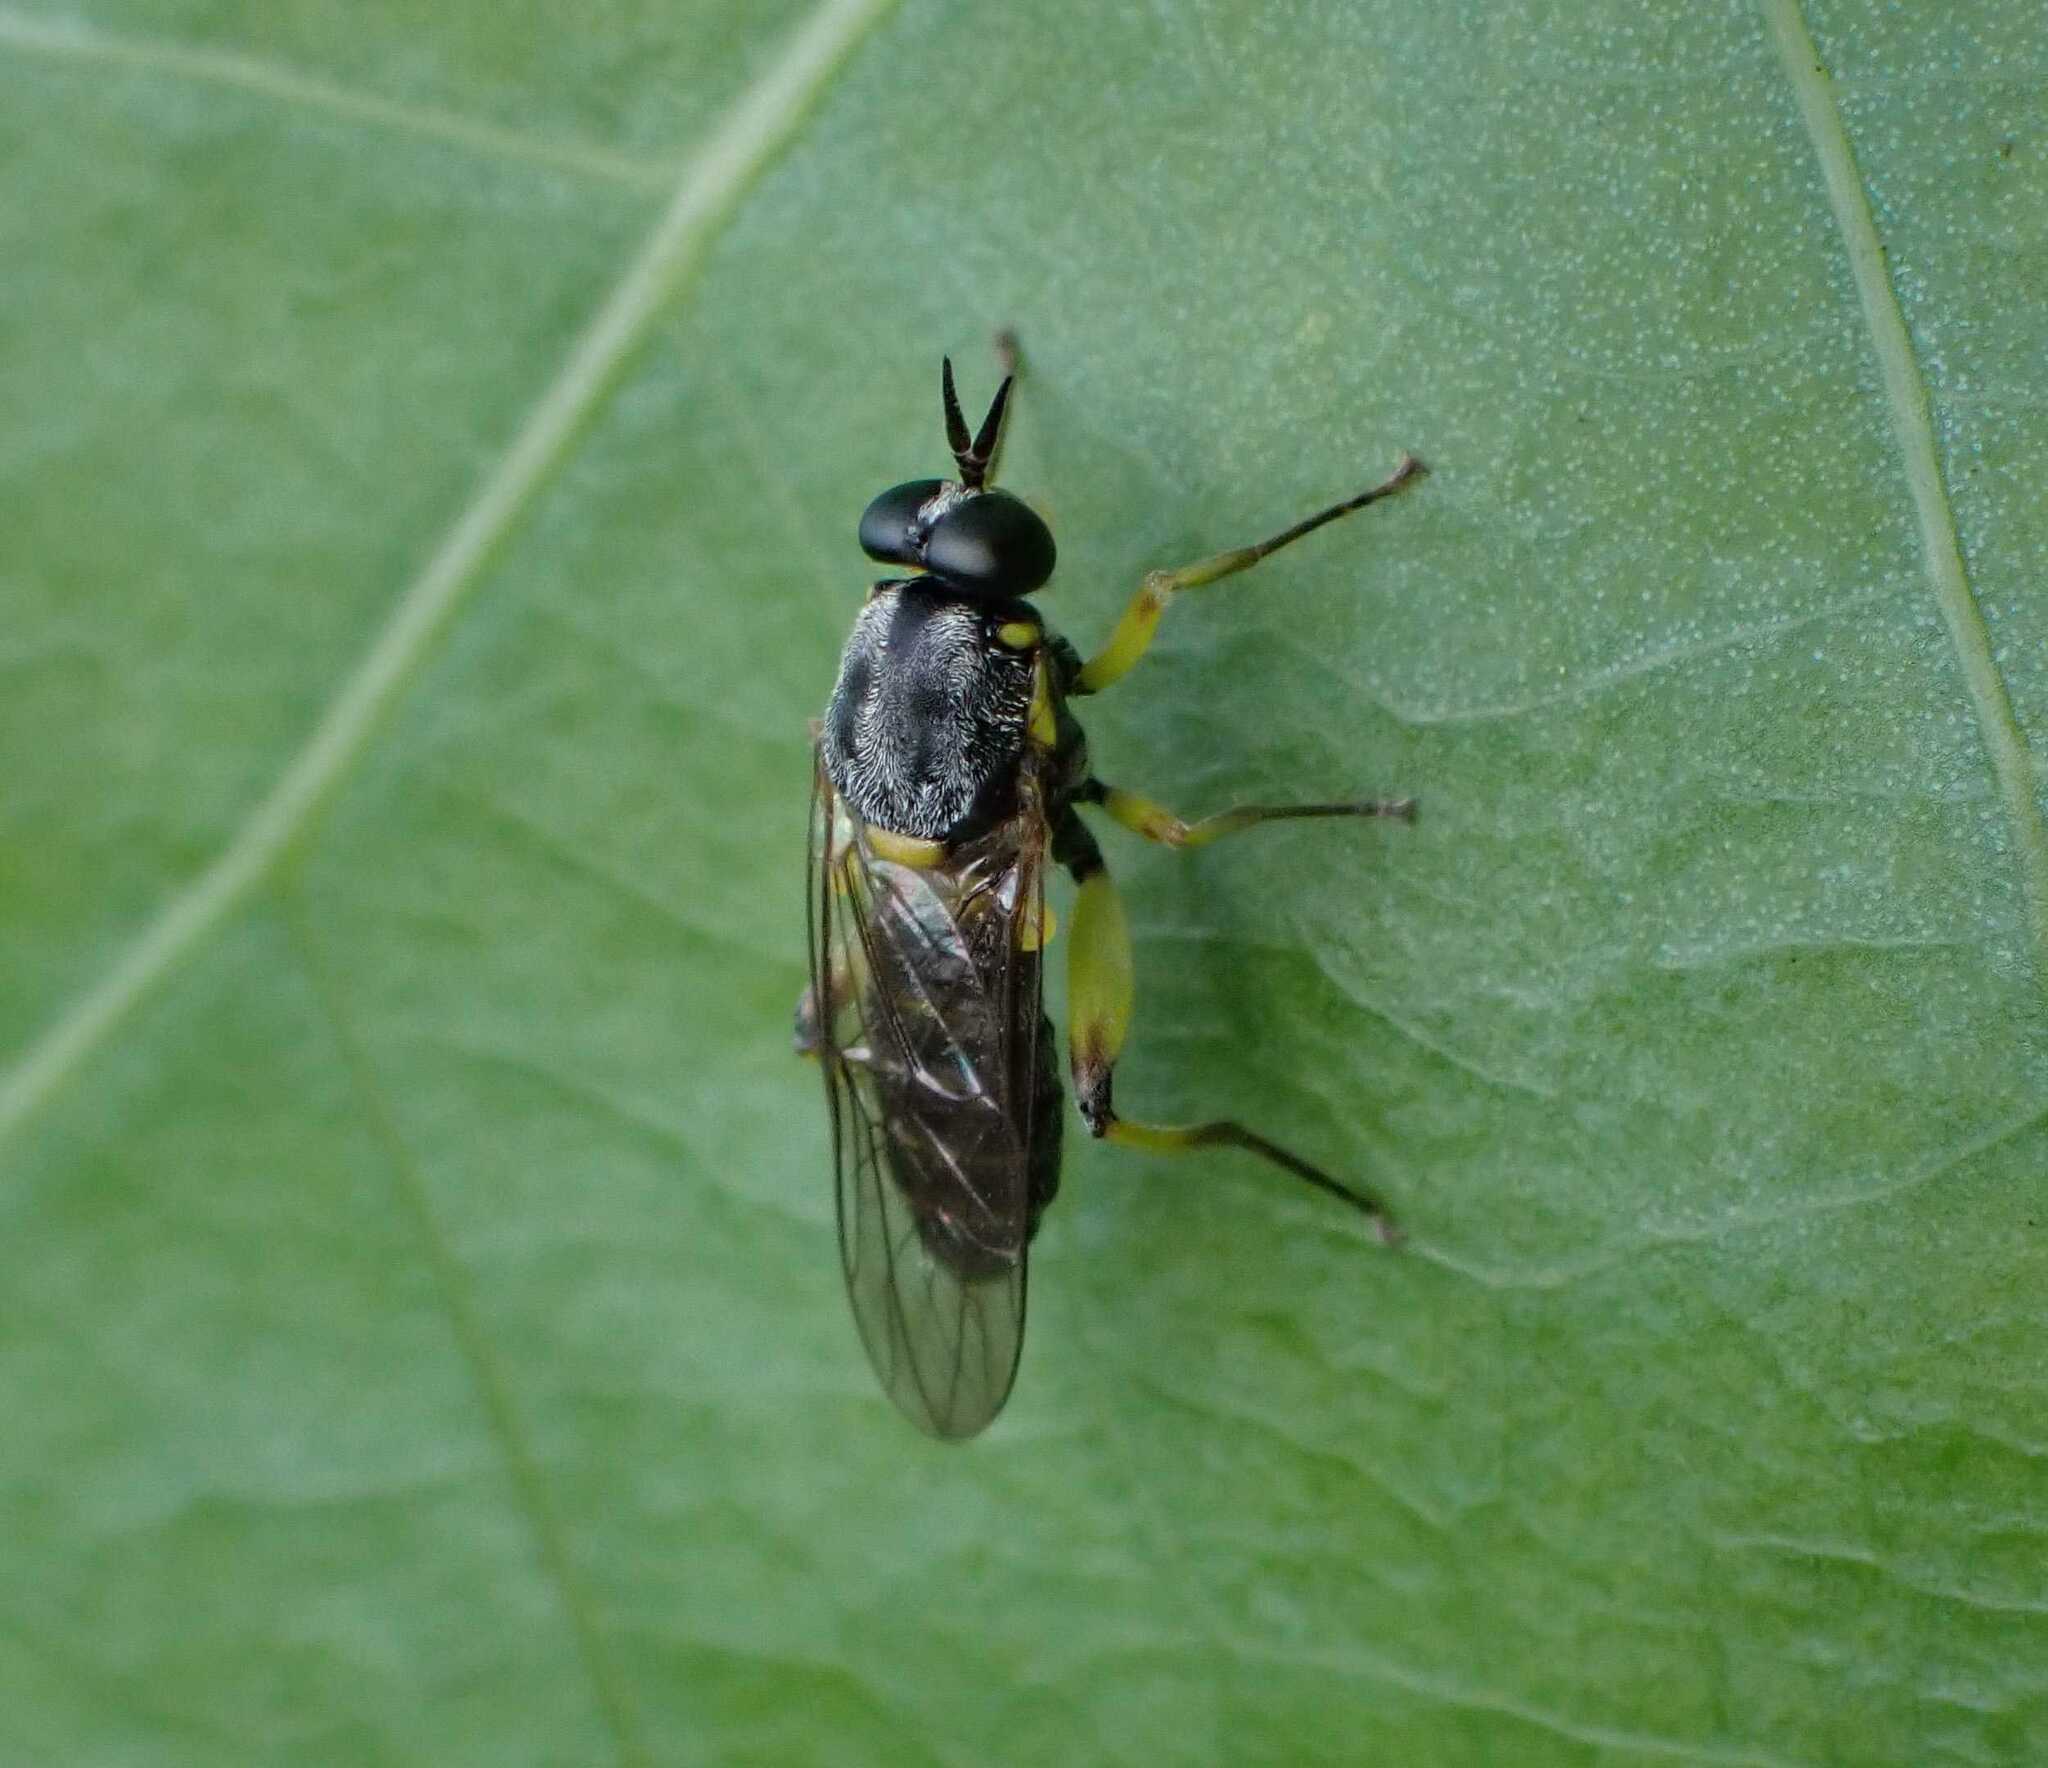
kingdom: Animalia
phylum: Arthropoda
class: Insecta
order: Diptera
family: Xylomyidae
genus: Solva
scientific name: Solva marginata
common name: Drab wood-soldierfly
